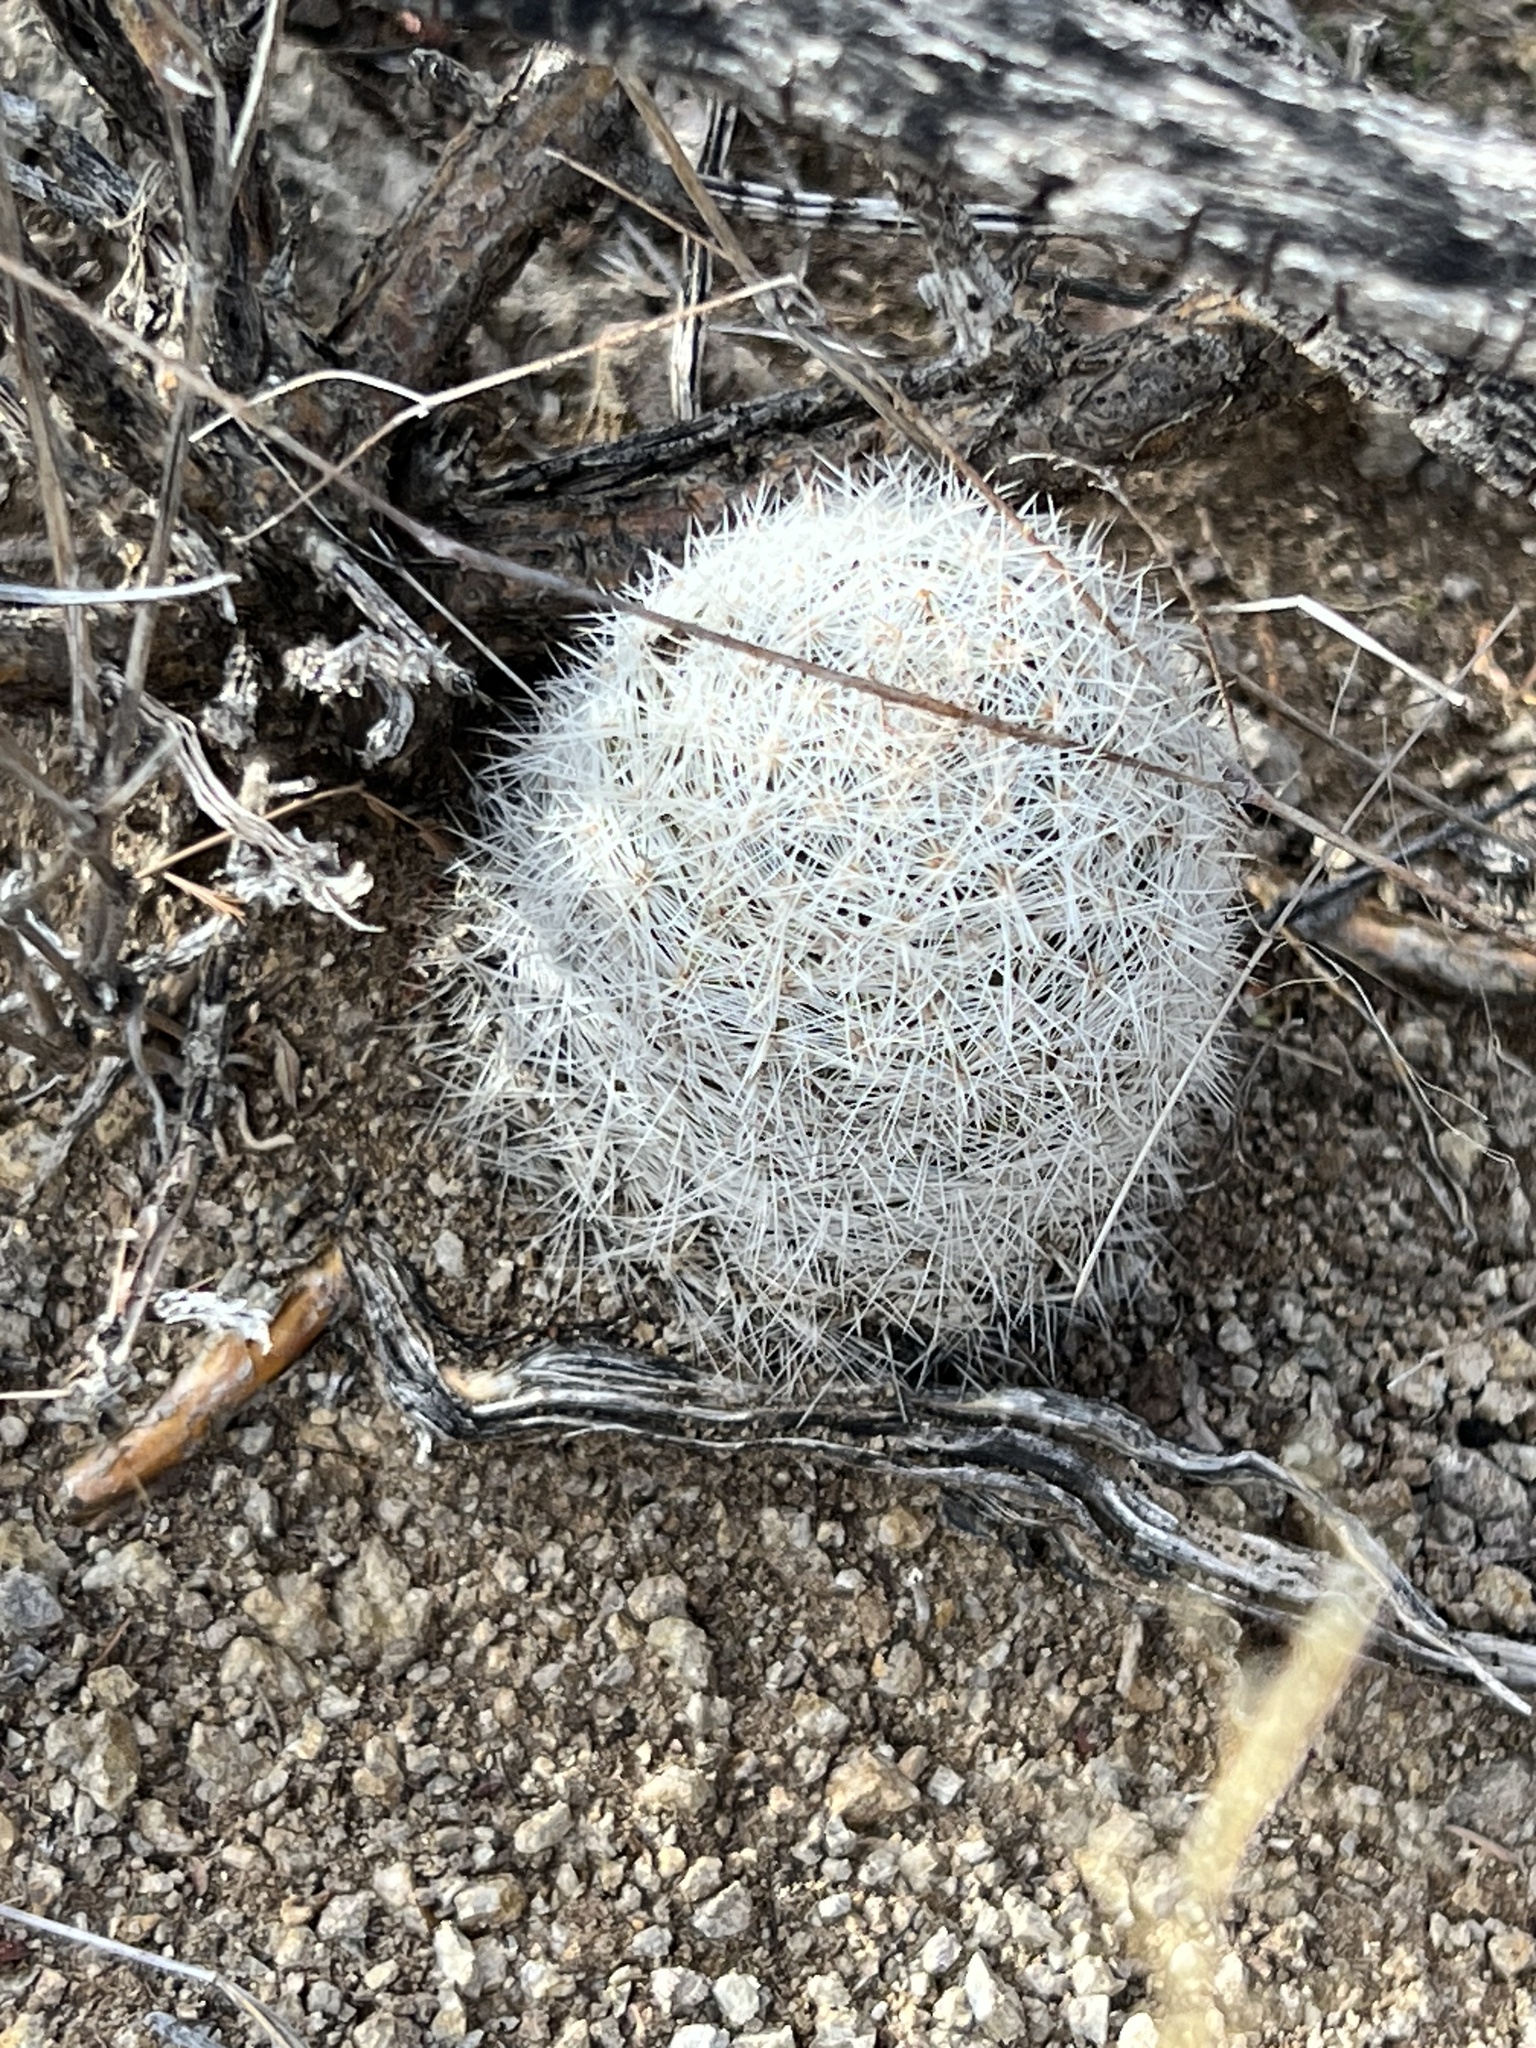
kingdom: Plantae
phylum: Tracheophyta
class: Magnoliopsida
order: Caryophyllales
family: Cactaceae
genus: Cochemiea
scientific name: Cochemiea grahamii
